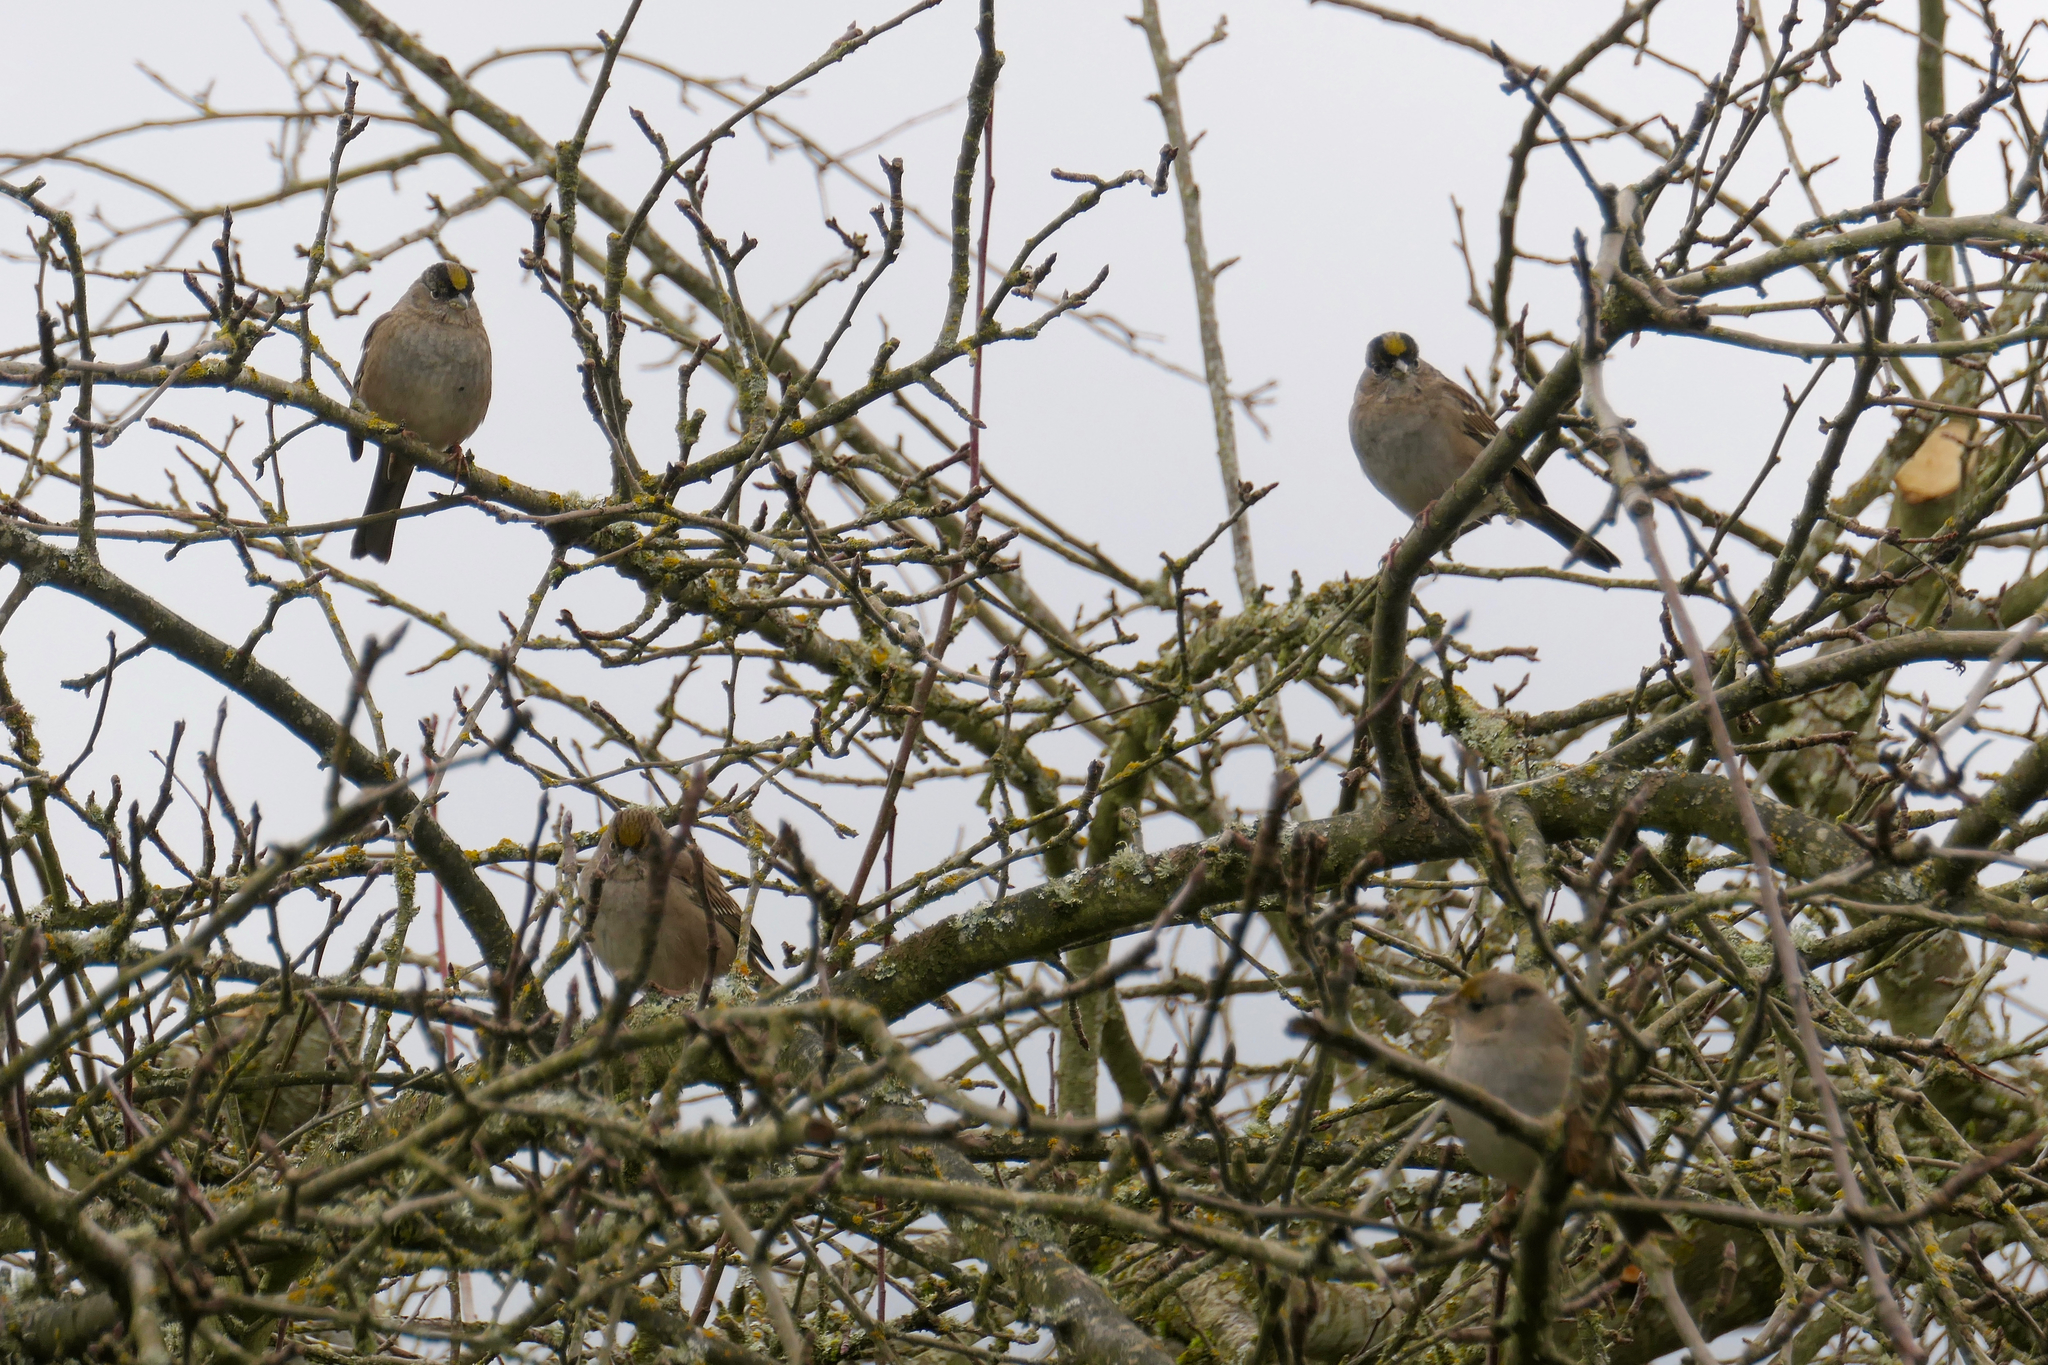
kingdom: Animalia
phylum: Chordata
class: Aves
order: Passeriformes
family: Passerellidae
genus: Zonotrichia
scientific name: Zonotrichia atricapilla
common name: Golden-crowned sparrow
